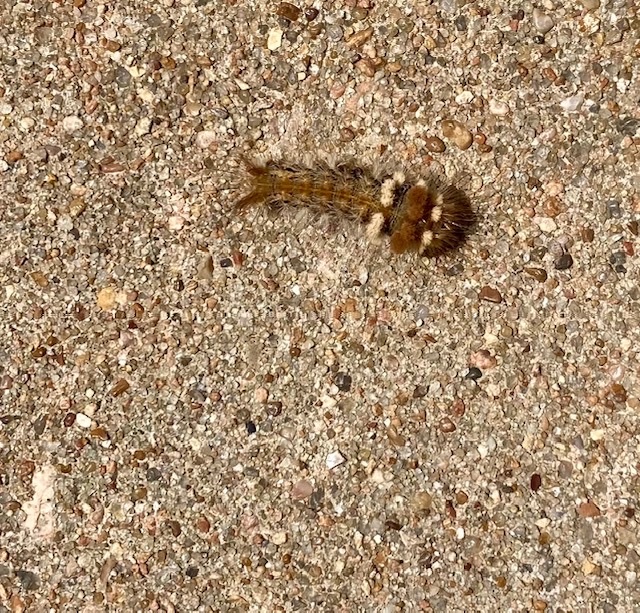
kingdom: Animalia
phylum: Arthropoda
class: Insecta
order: Lepidoptera
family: Noctuidae
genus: Acronicta
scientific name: Acronicta impleta
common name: Powdered dagger
